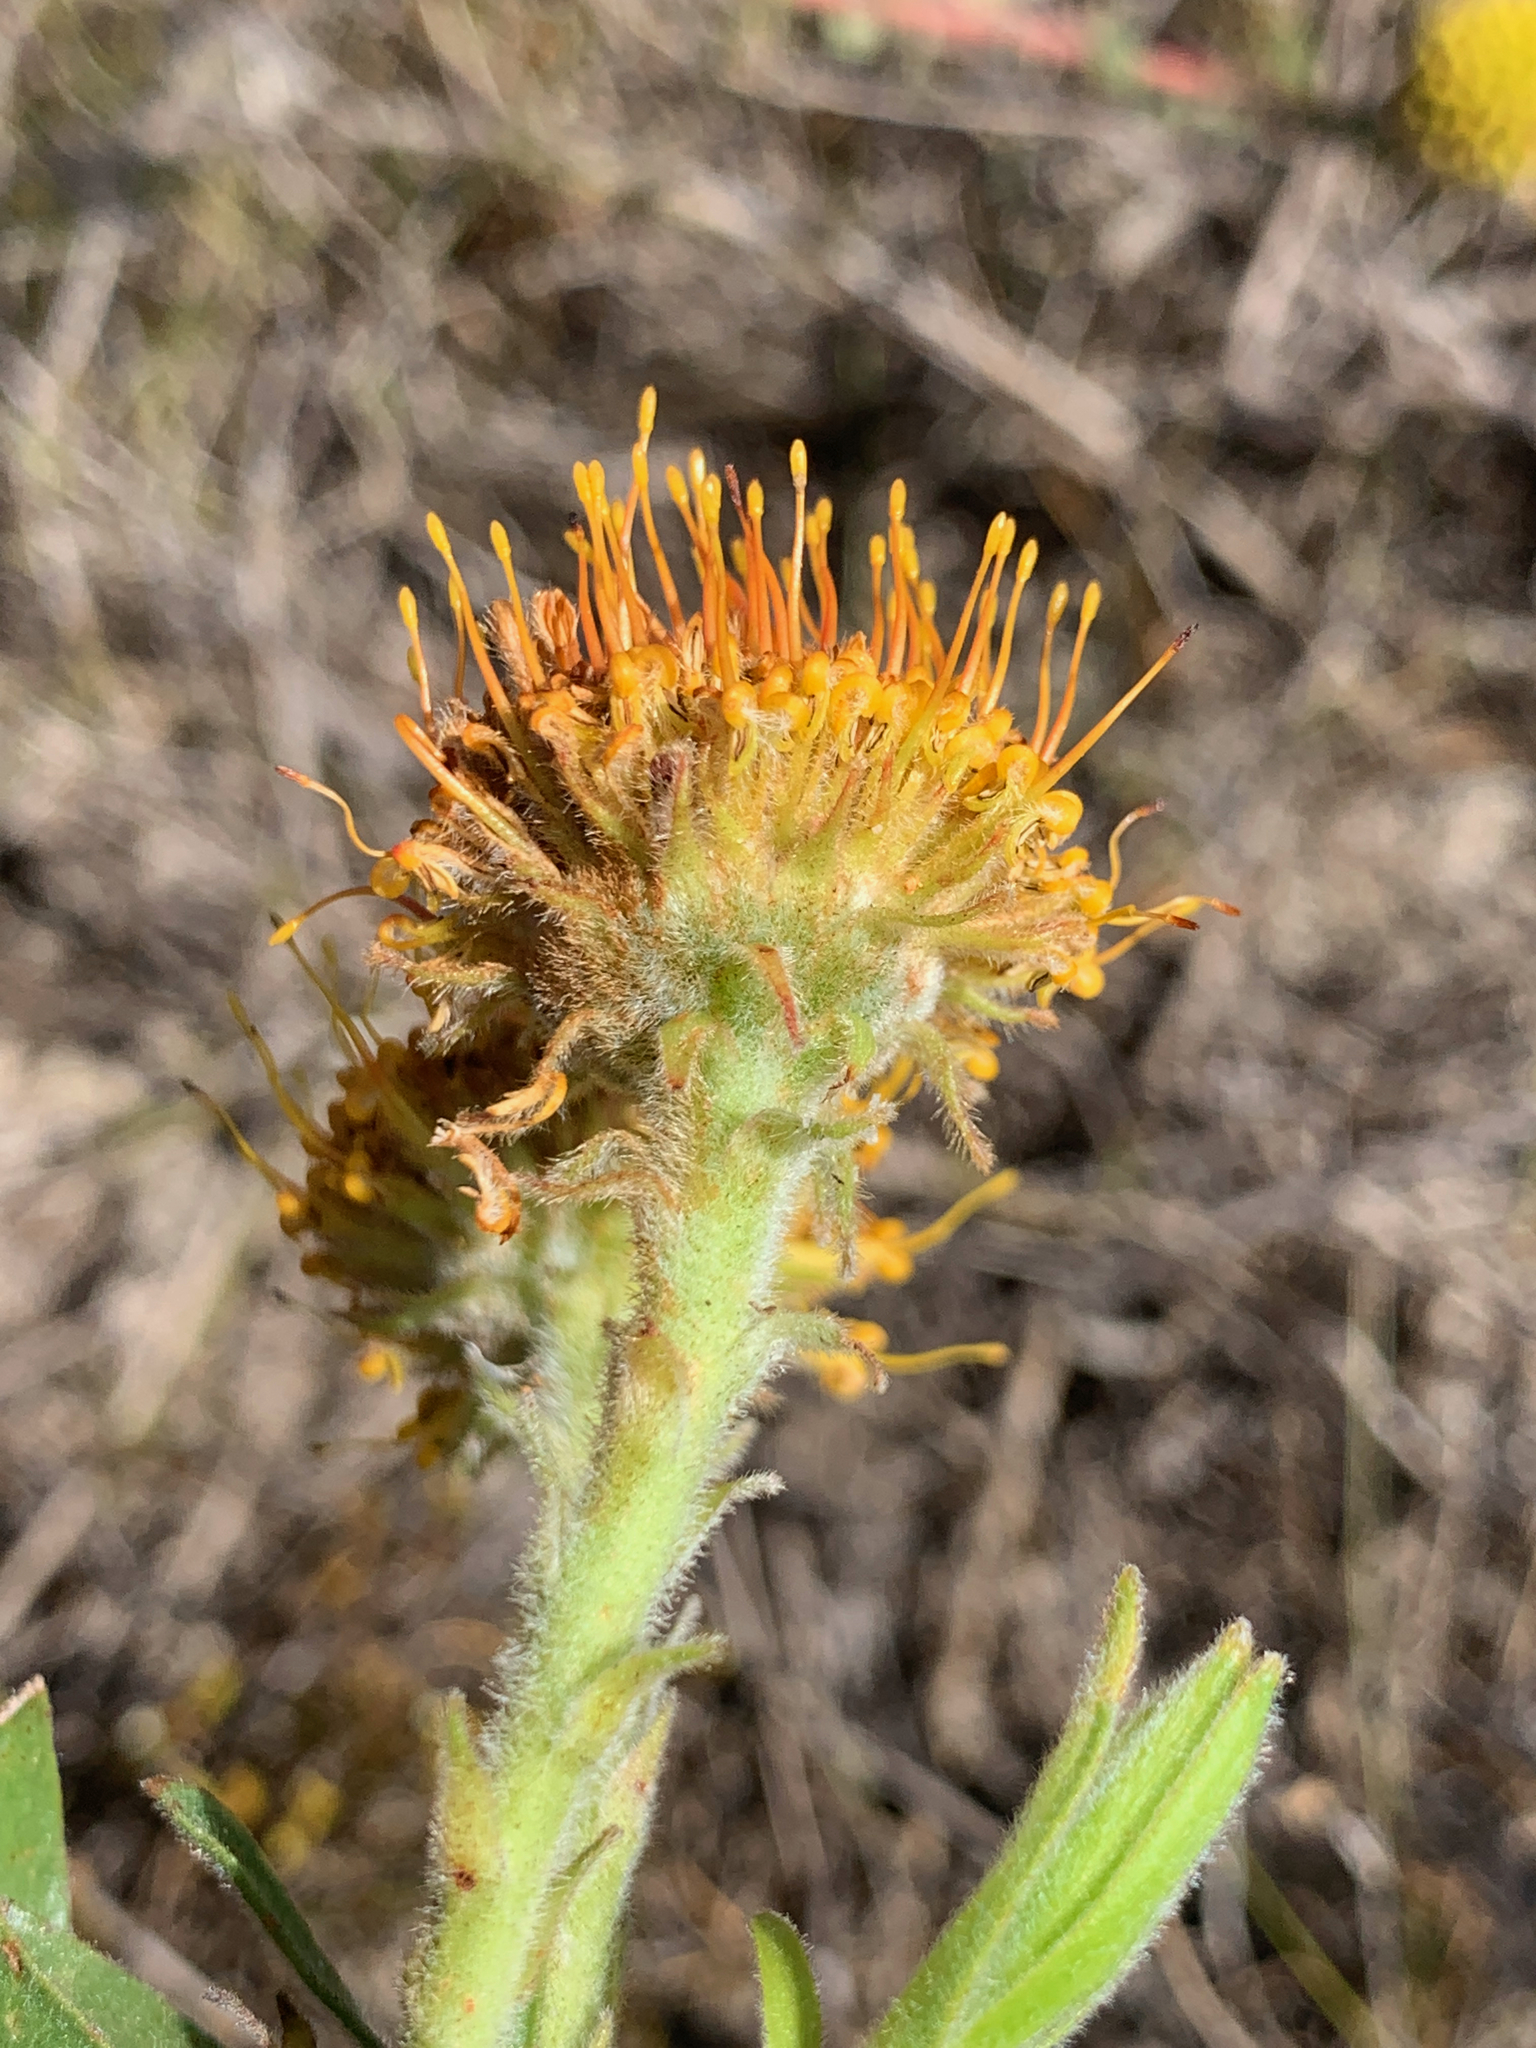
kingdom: Plantae
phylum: Tracheophyta
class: Magnoliopsida
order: Proteales
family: Proteaceae
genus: Leucospermum
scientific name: Leucospermum prostratum
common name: Yellow-trailing pincushion
